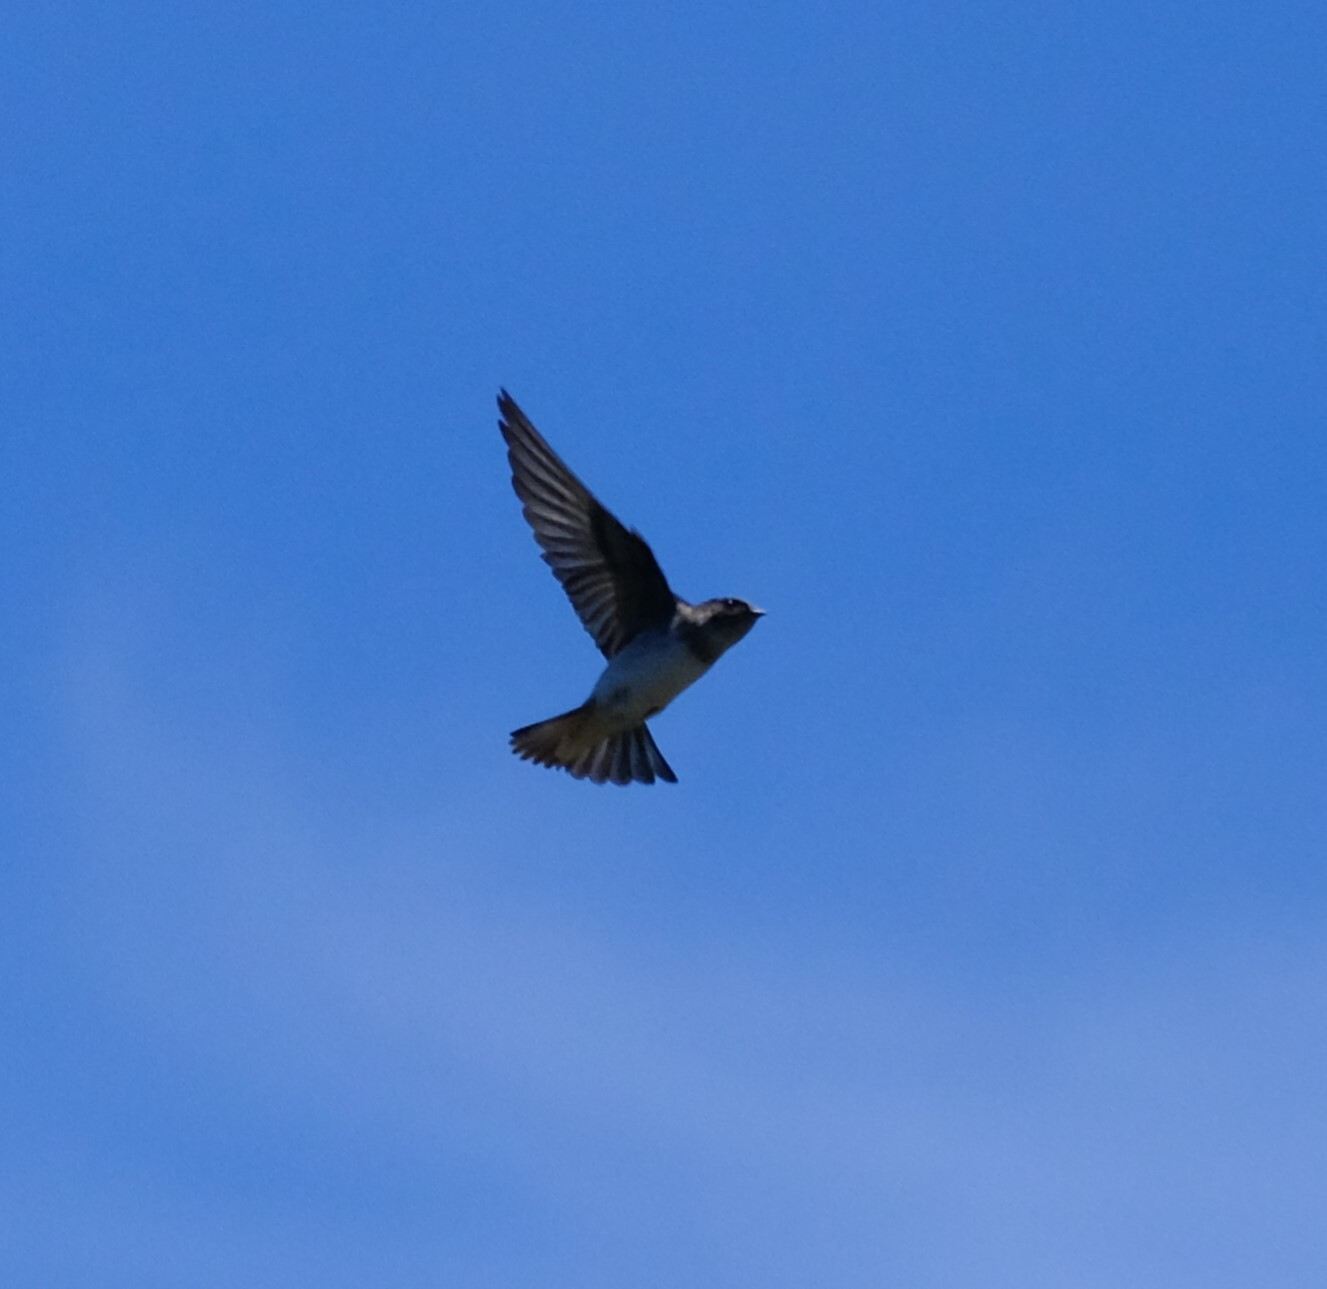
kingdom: Animalia
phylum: Chordata
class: Aves
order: Passeriformes
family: Hirundinidae
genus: Petrochelidon
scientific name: Petrochelidon nigricans
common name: Tree martin
